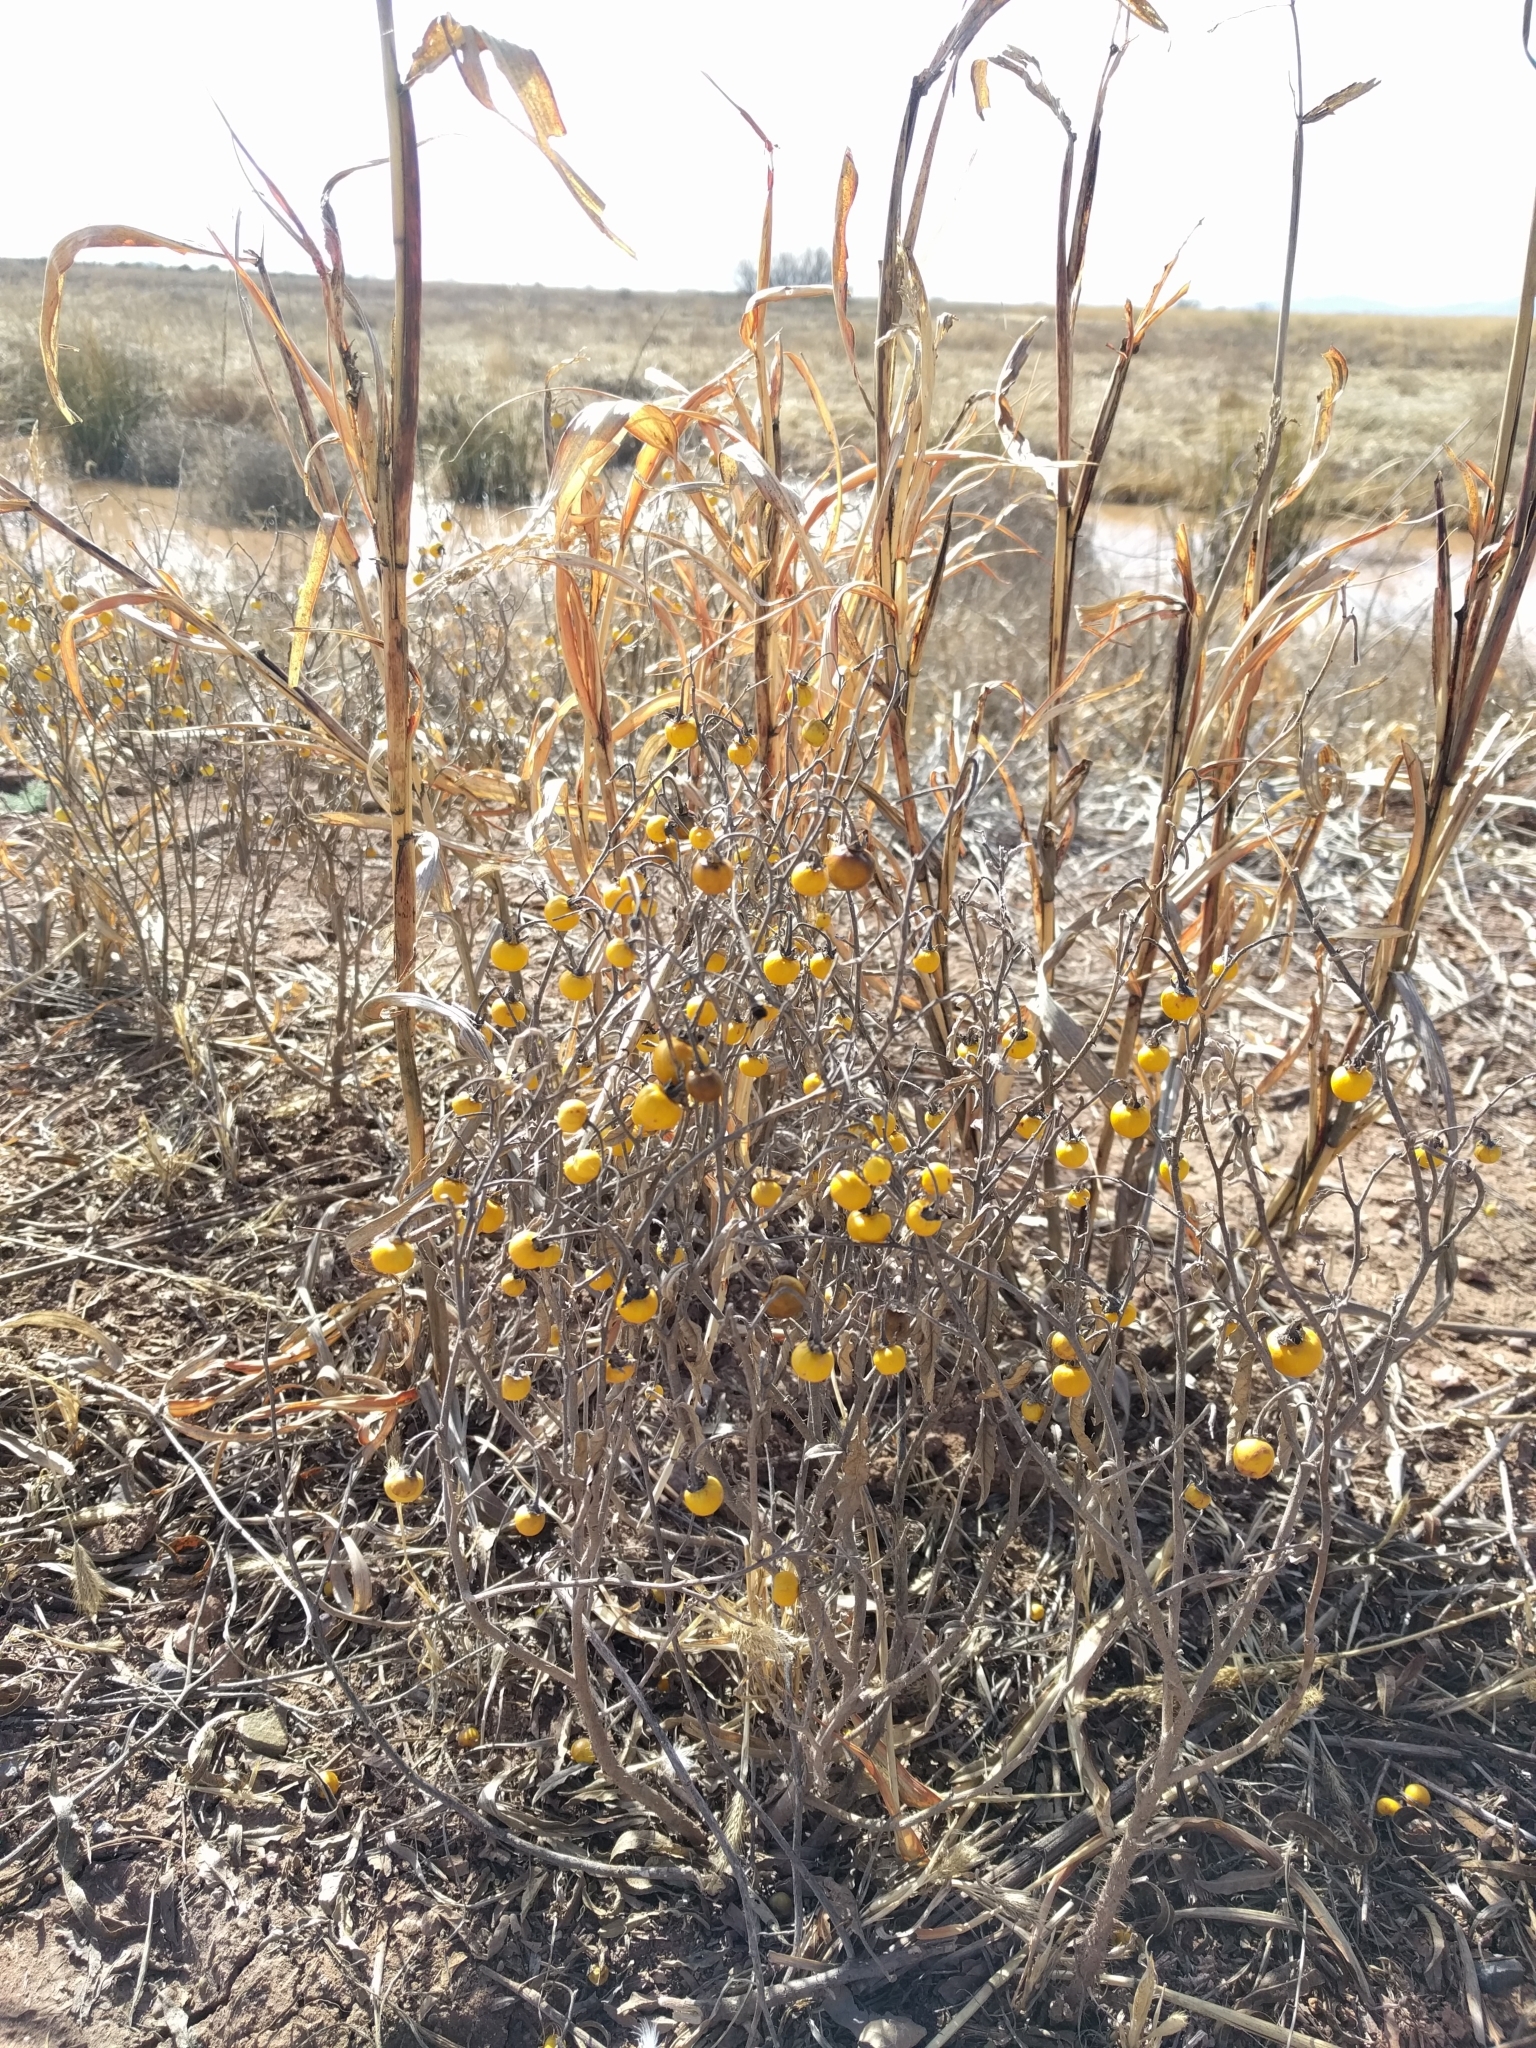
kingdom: Plantae
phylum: Tracheophyta
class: Magnoliopsida
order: Solanales
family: Solanaceae
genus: Solanum
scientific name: Solanum elaeagnifolium
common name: Silverleaf nightshade
